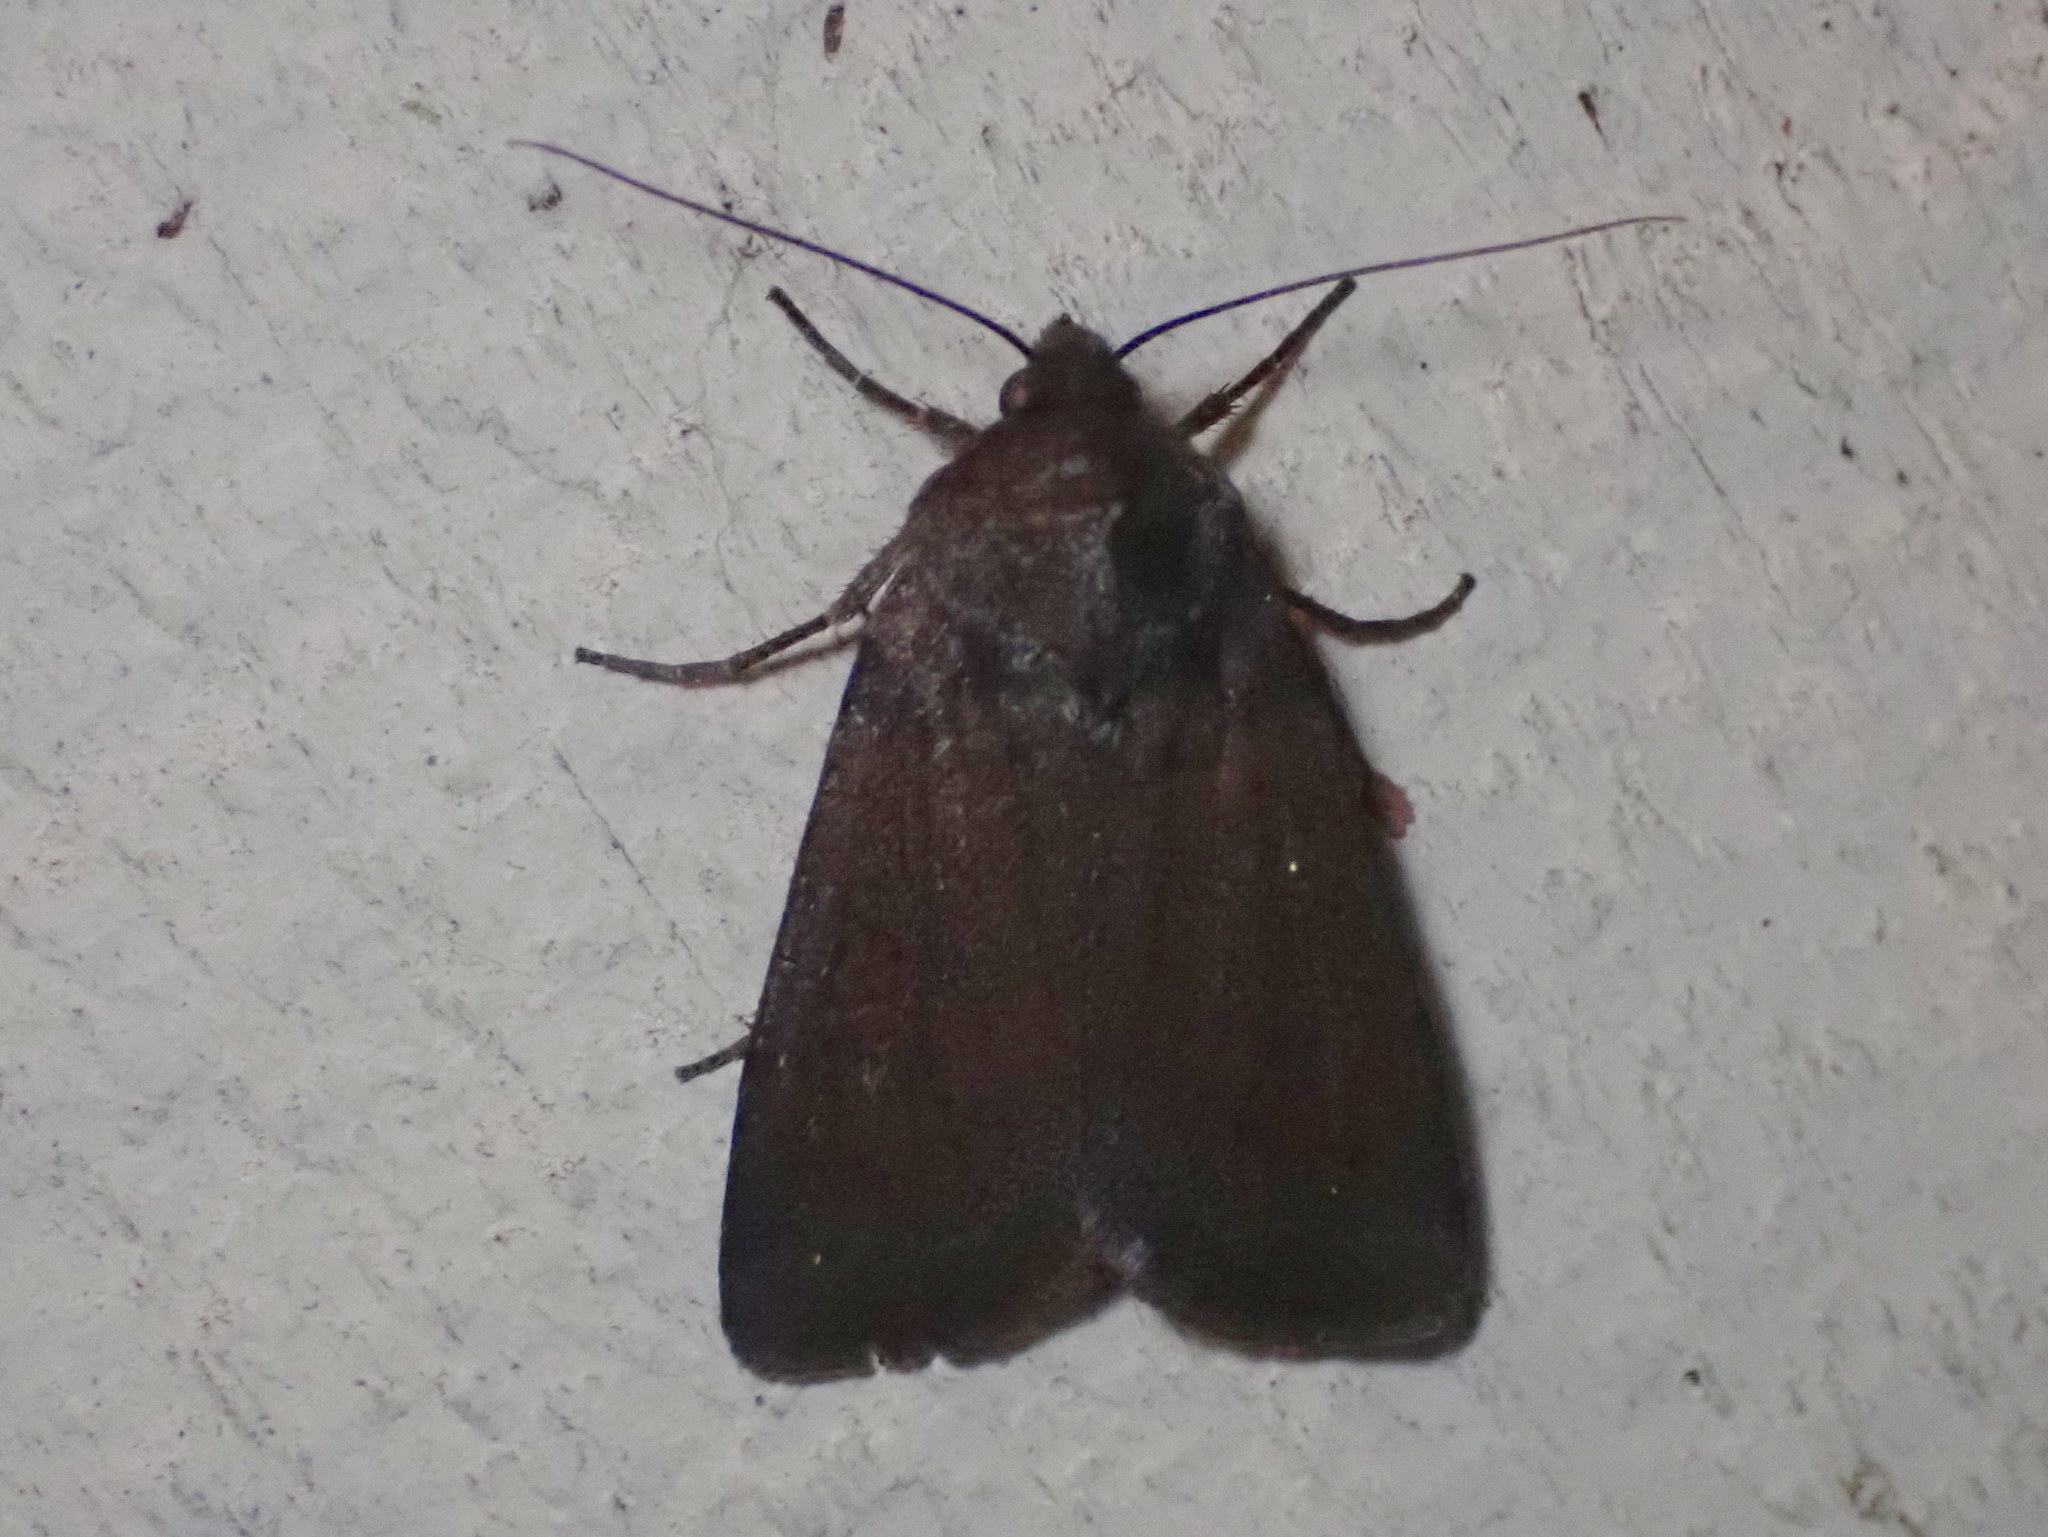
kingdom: Animalia
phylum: Arthropoda
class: Insecta
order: Lepidoptera
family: Noctuidae
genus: Sideridis
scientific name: Sideridis maryx
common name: Maroonwing moth
